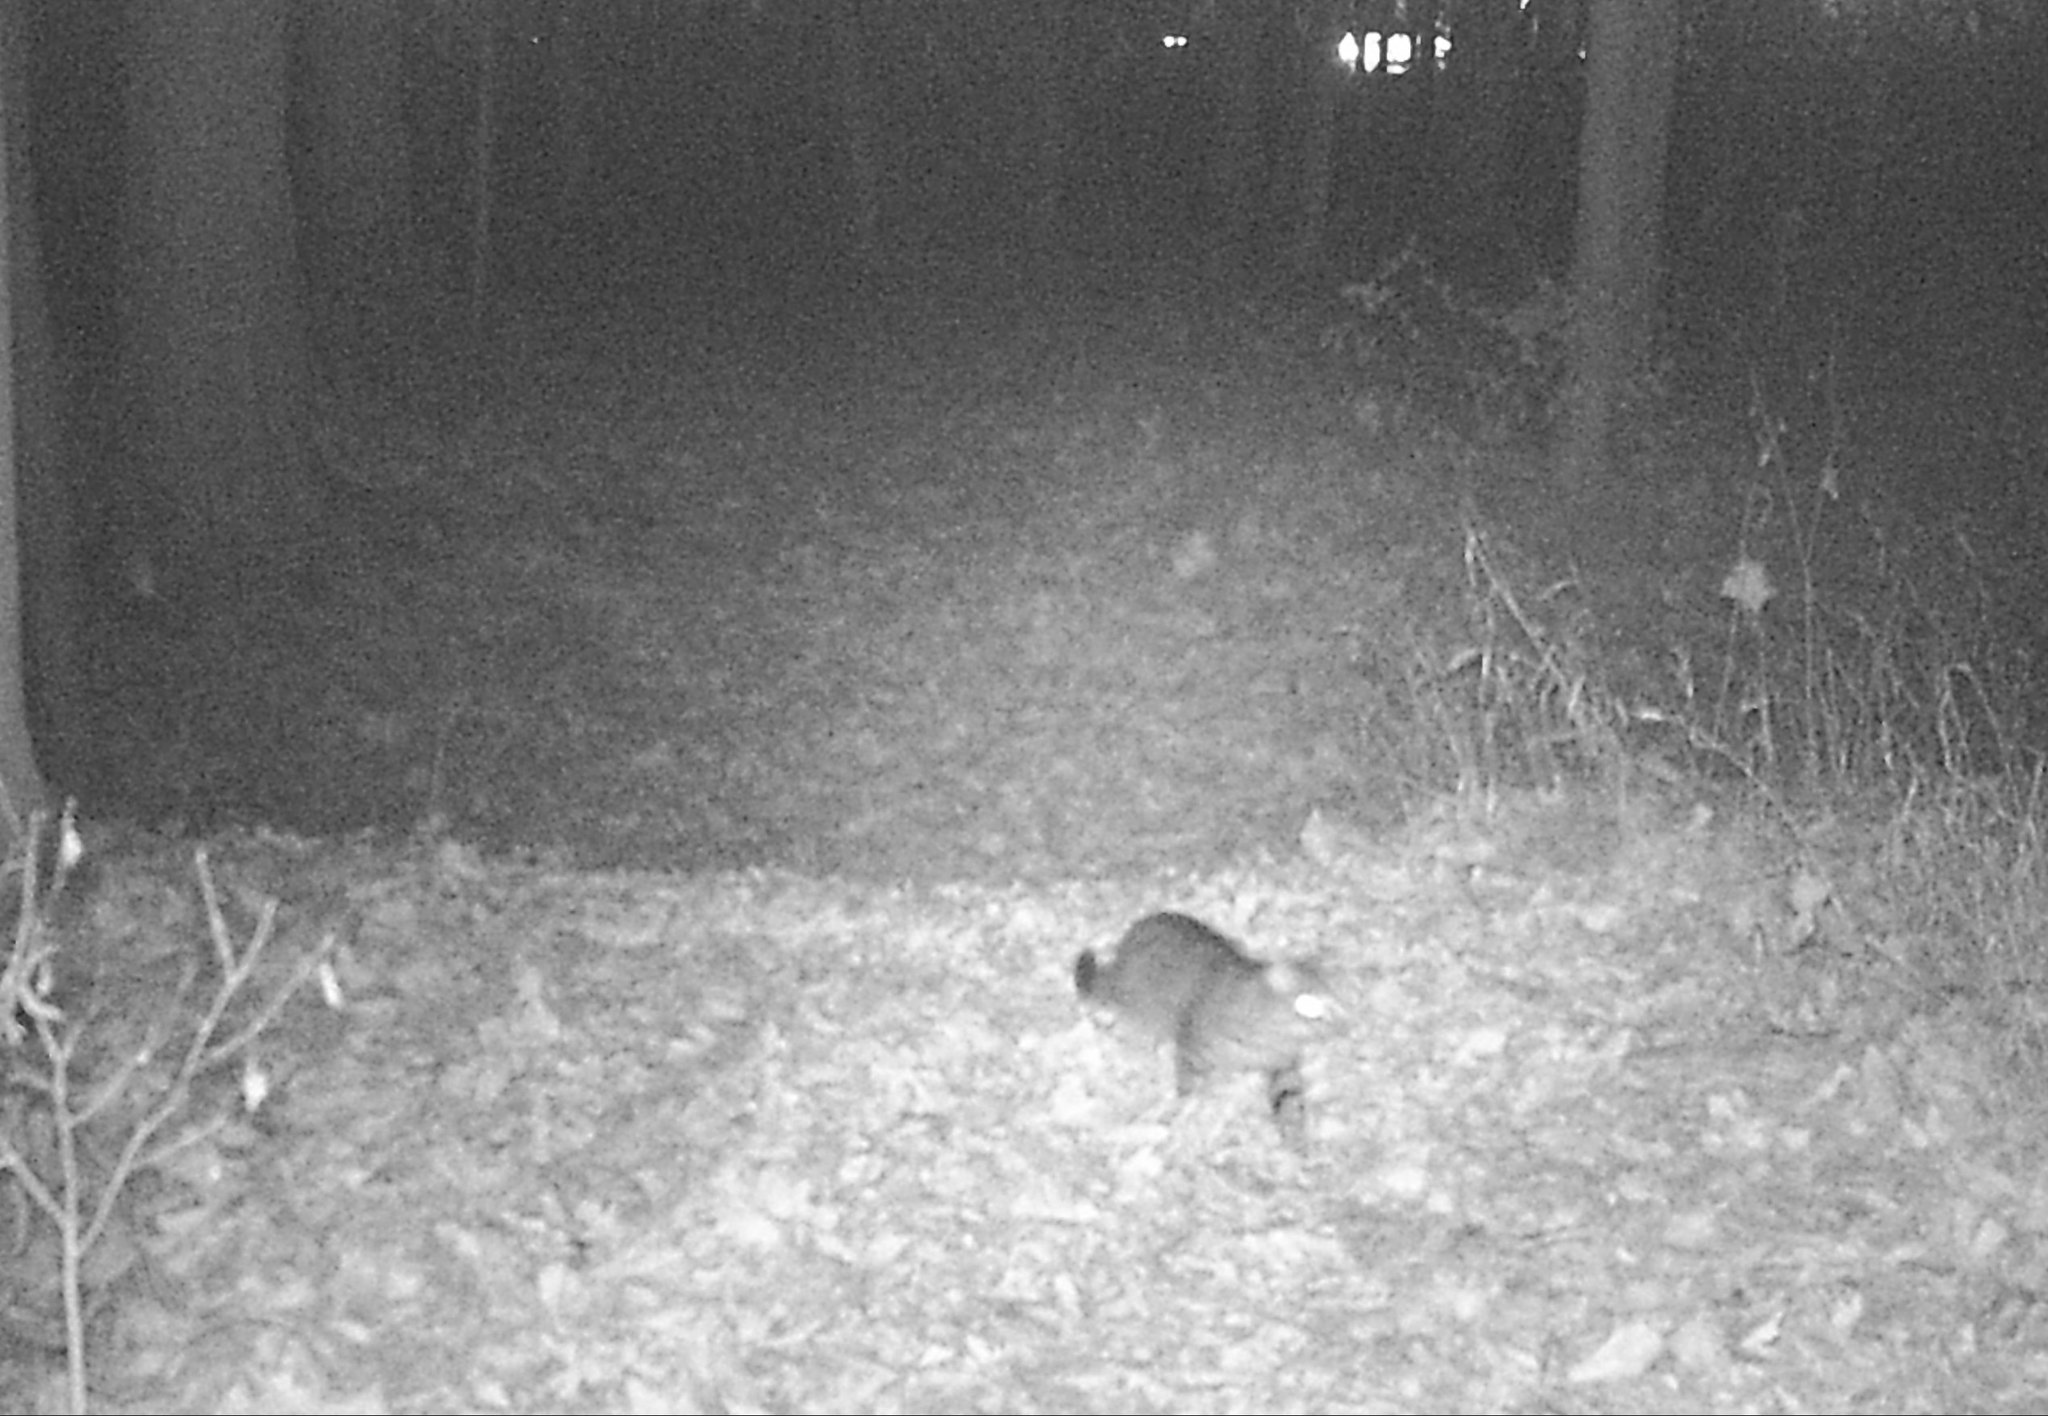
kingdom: Animalia
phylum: Chordata
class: Mammalia
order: Carnivora
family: Felidae
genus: Felis
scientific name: Felis catus
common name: Domestic cat
